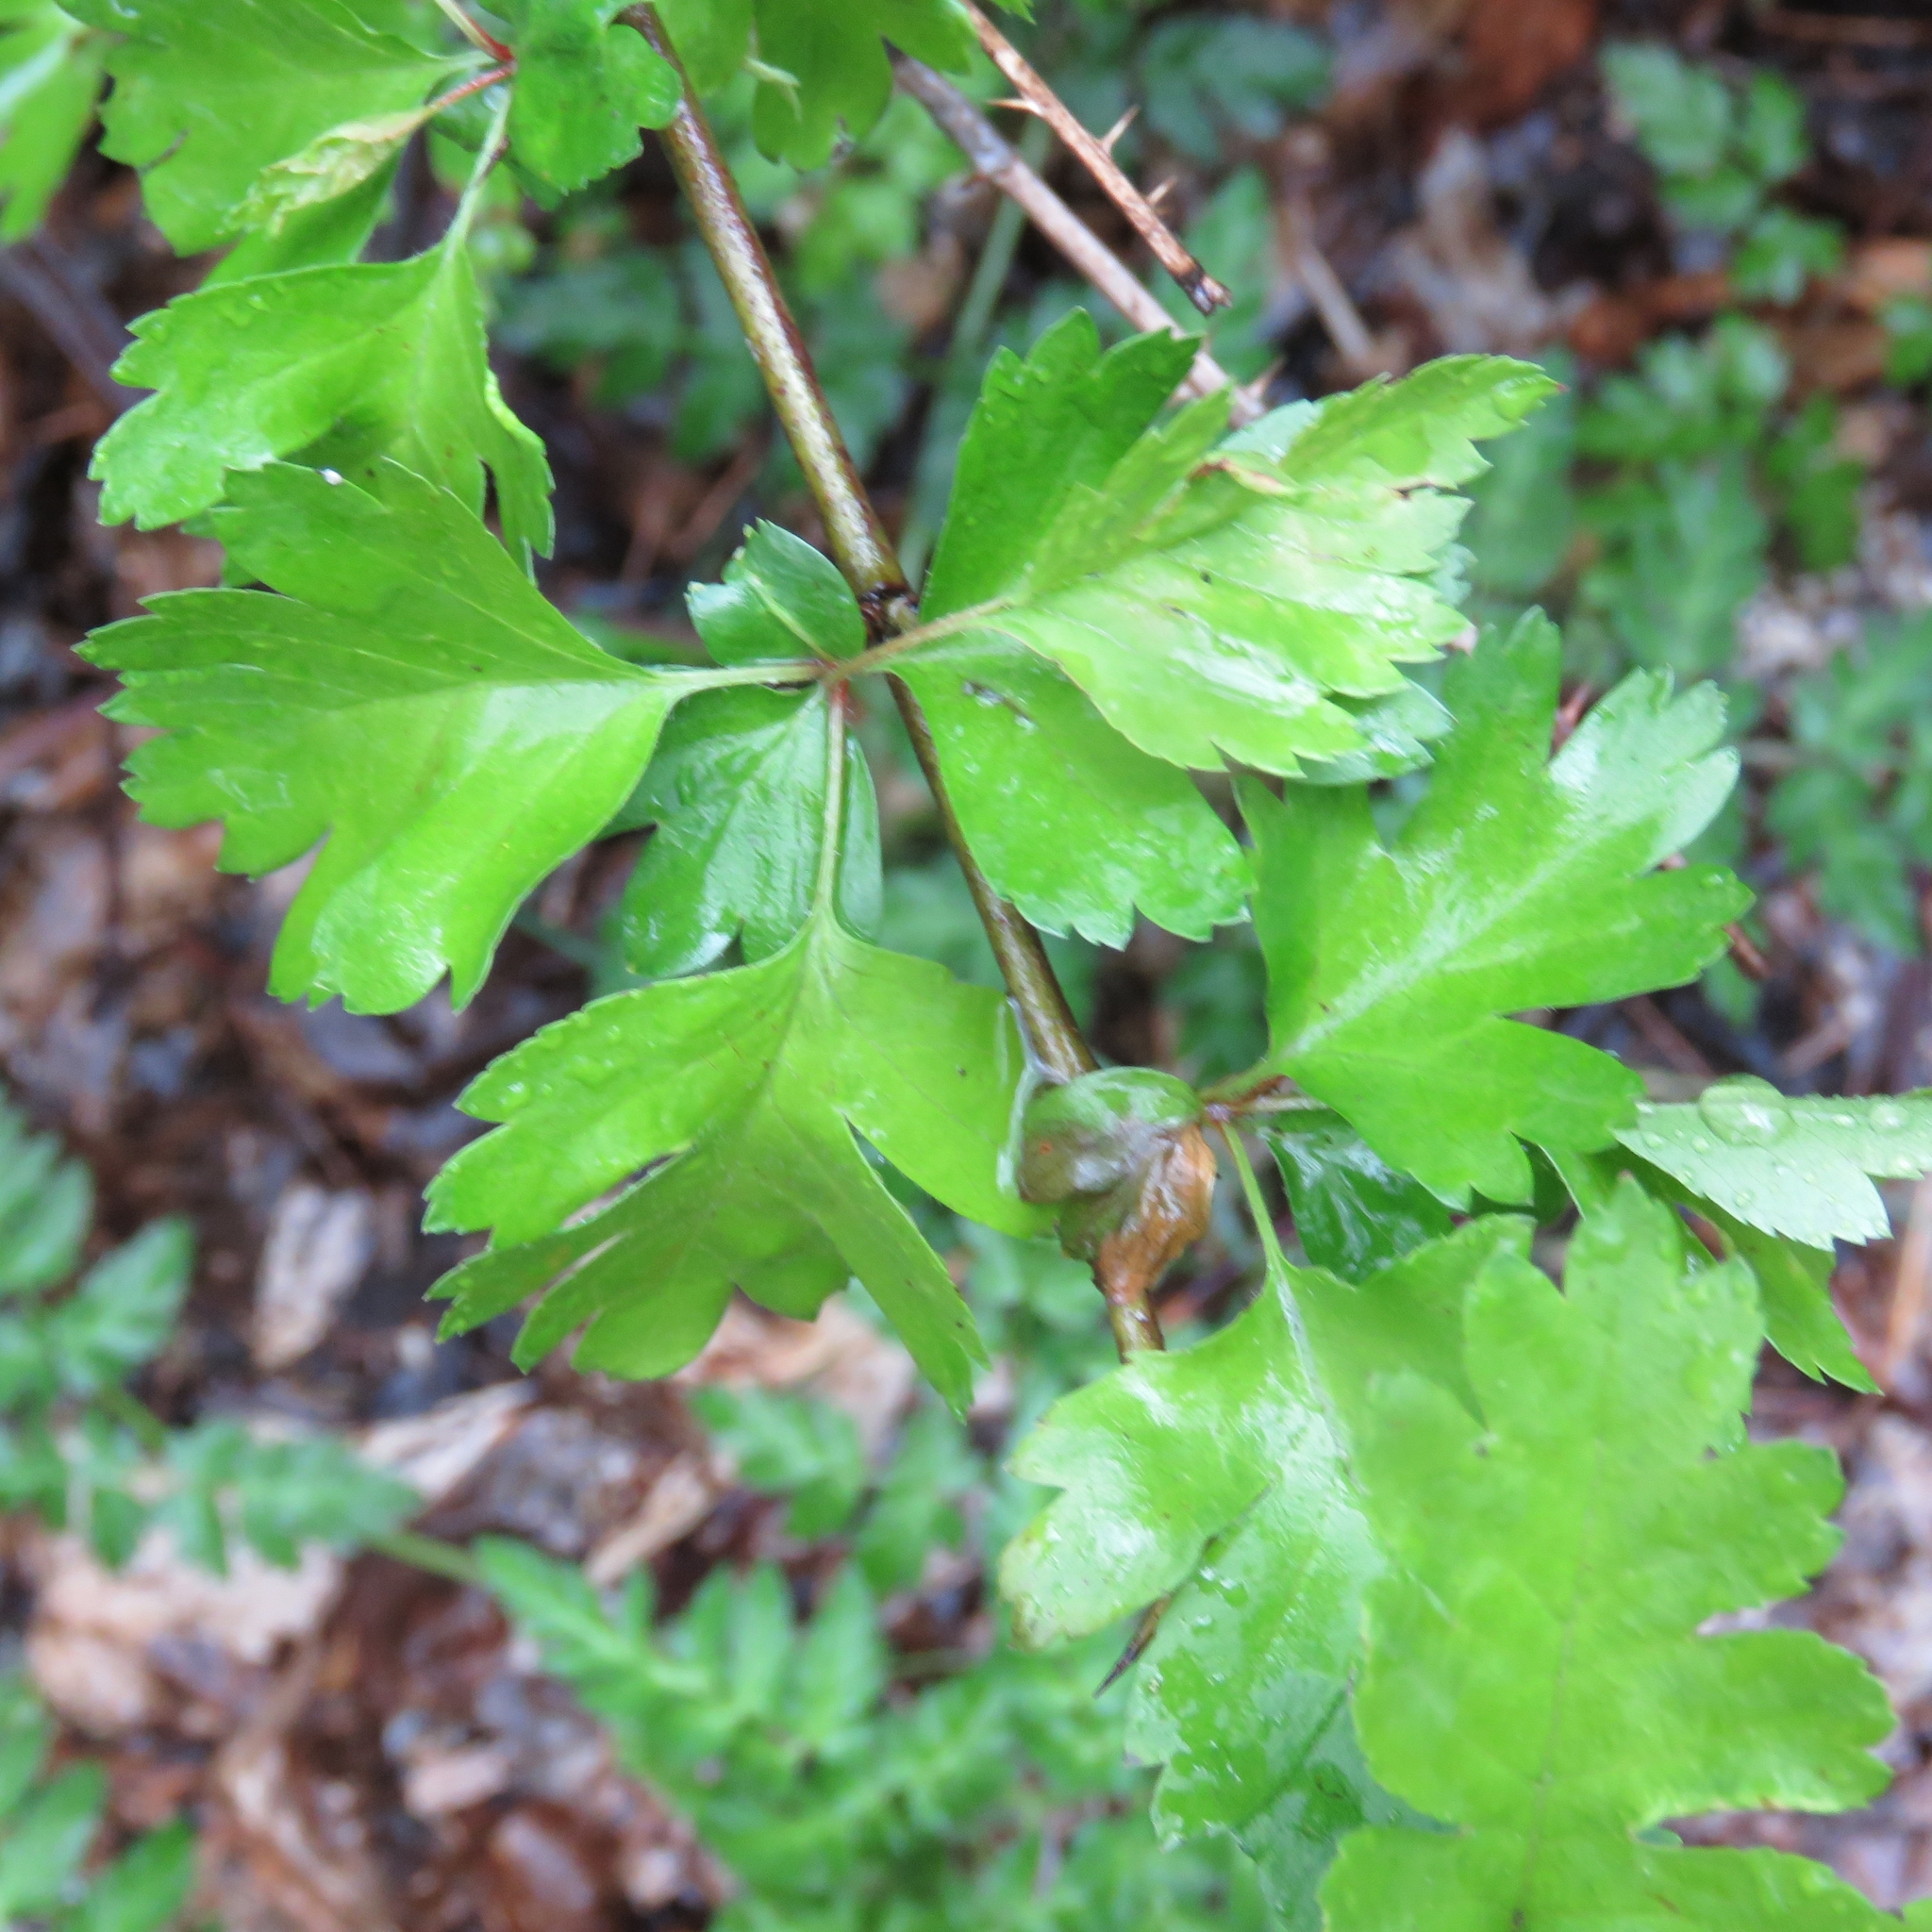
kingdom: Plantae
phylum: Tracheophyta
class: Magnoliopsida
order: Rosales
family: Rosaceae
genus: Crataegus
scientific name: Crataegus monogyna
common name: Hawthorn
